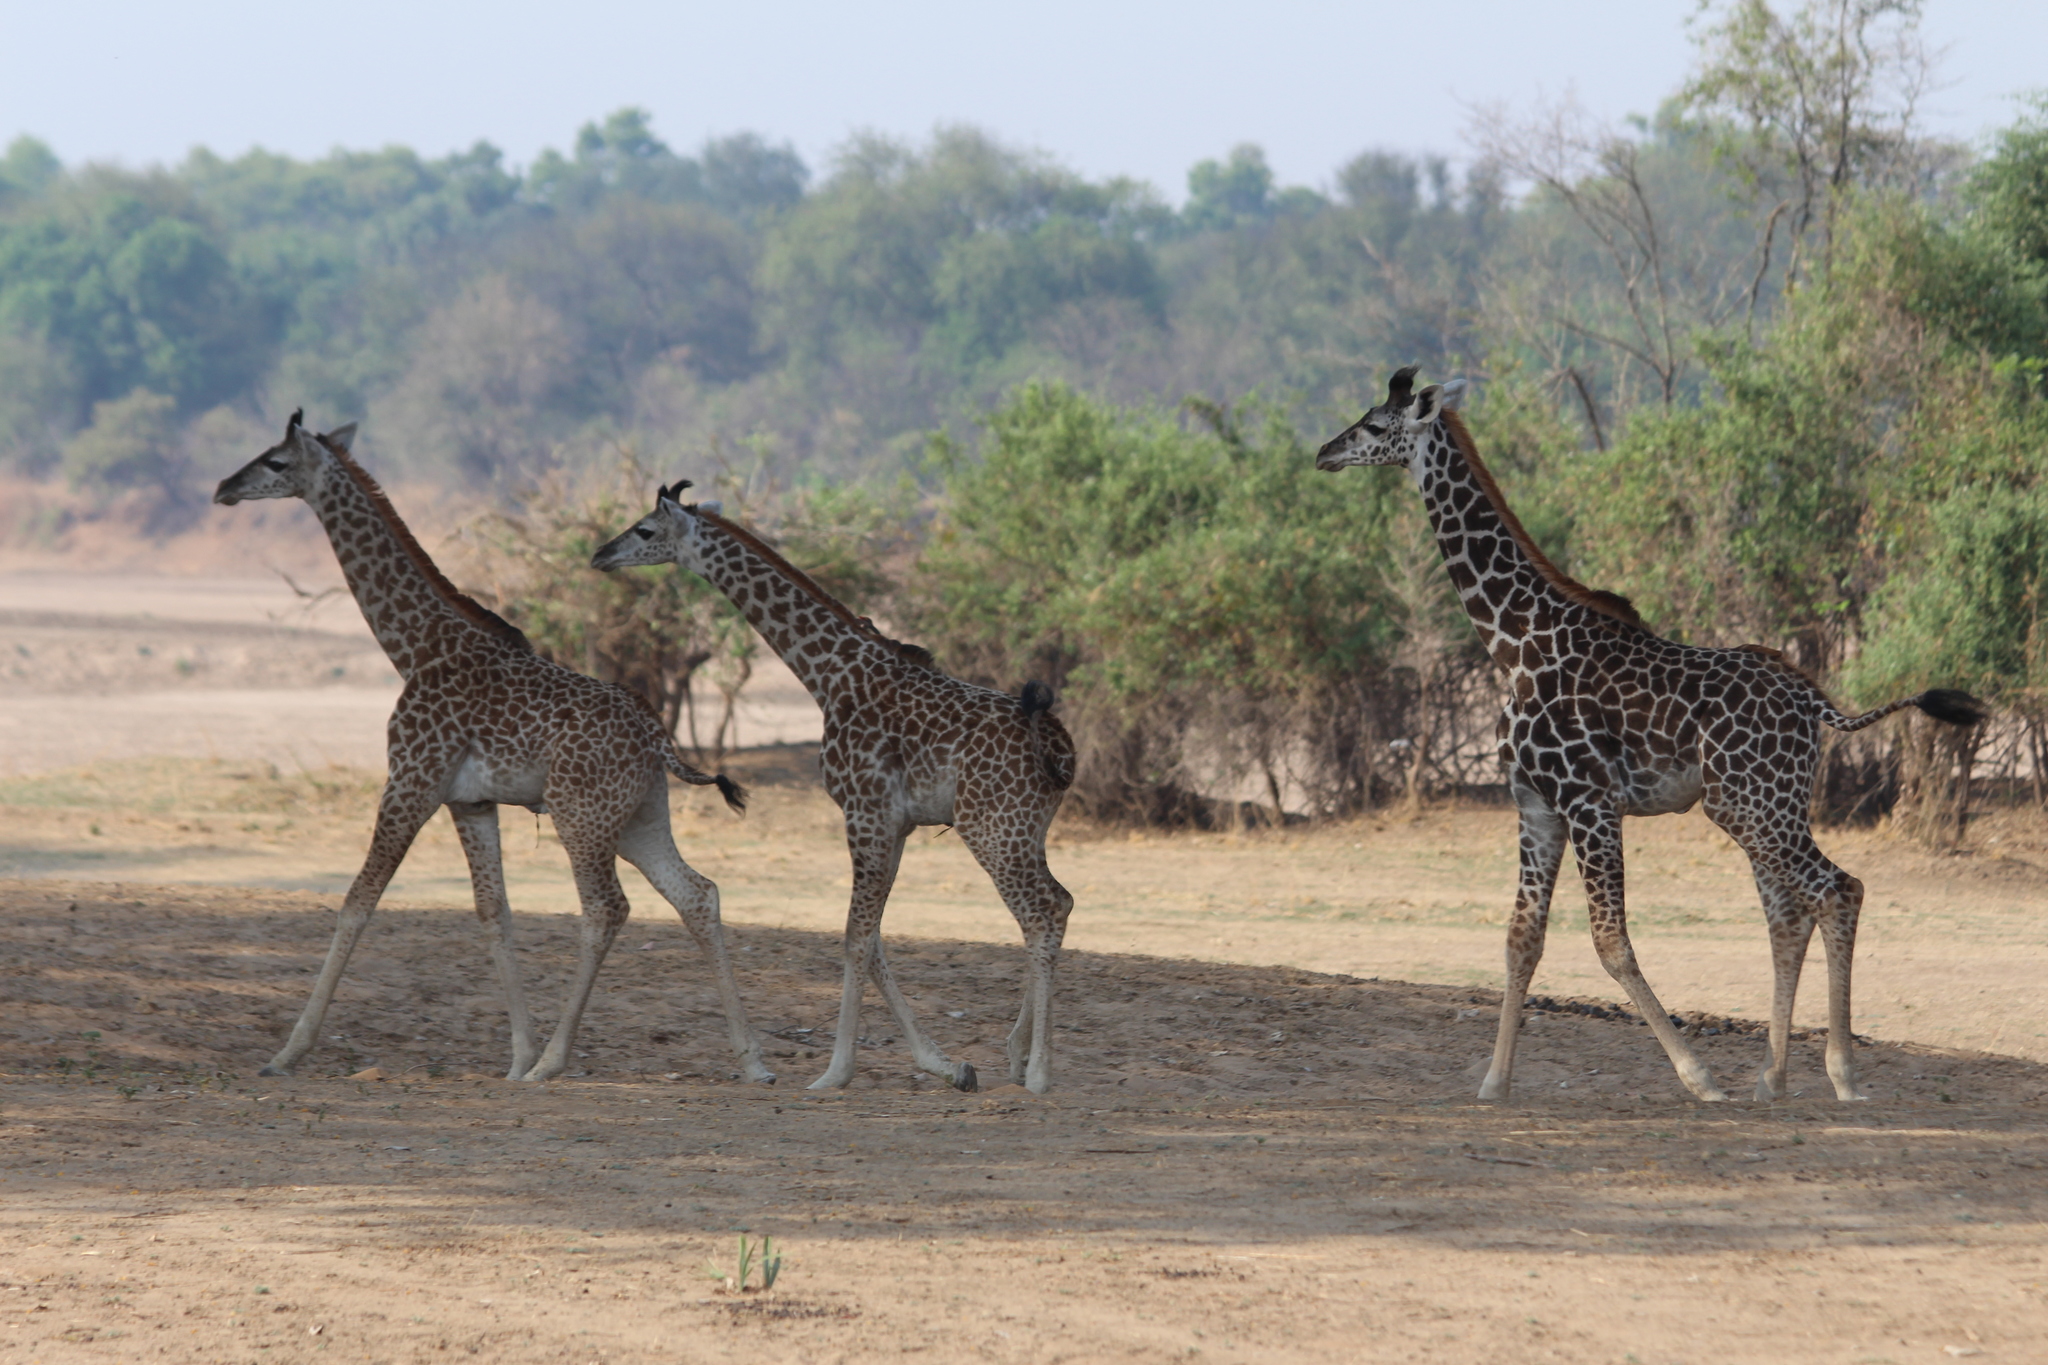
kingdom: Animalia
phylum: Chordata
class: Mammalia
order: Artiodactyla
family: Giraffidae
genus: Giraffa
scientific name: Giraffa tippelskirchi
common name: Masai giraffe
